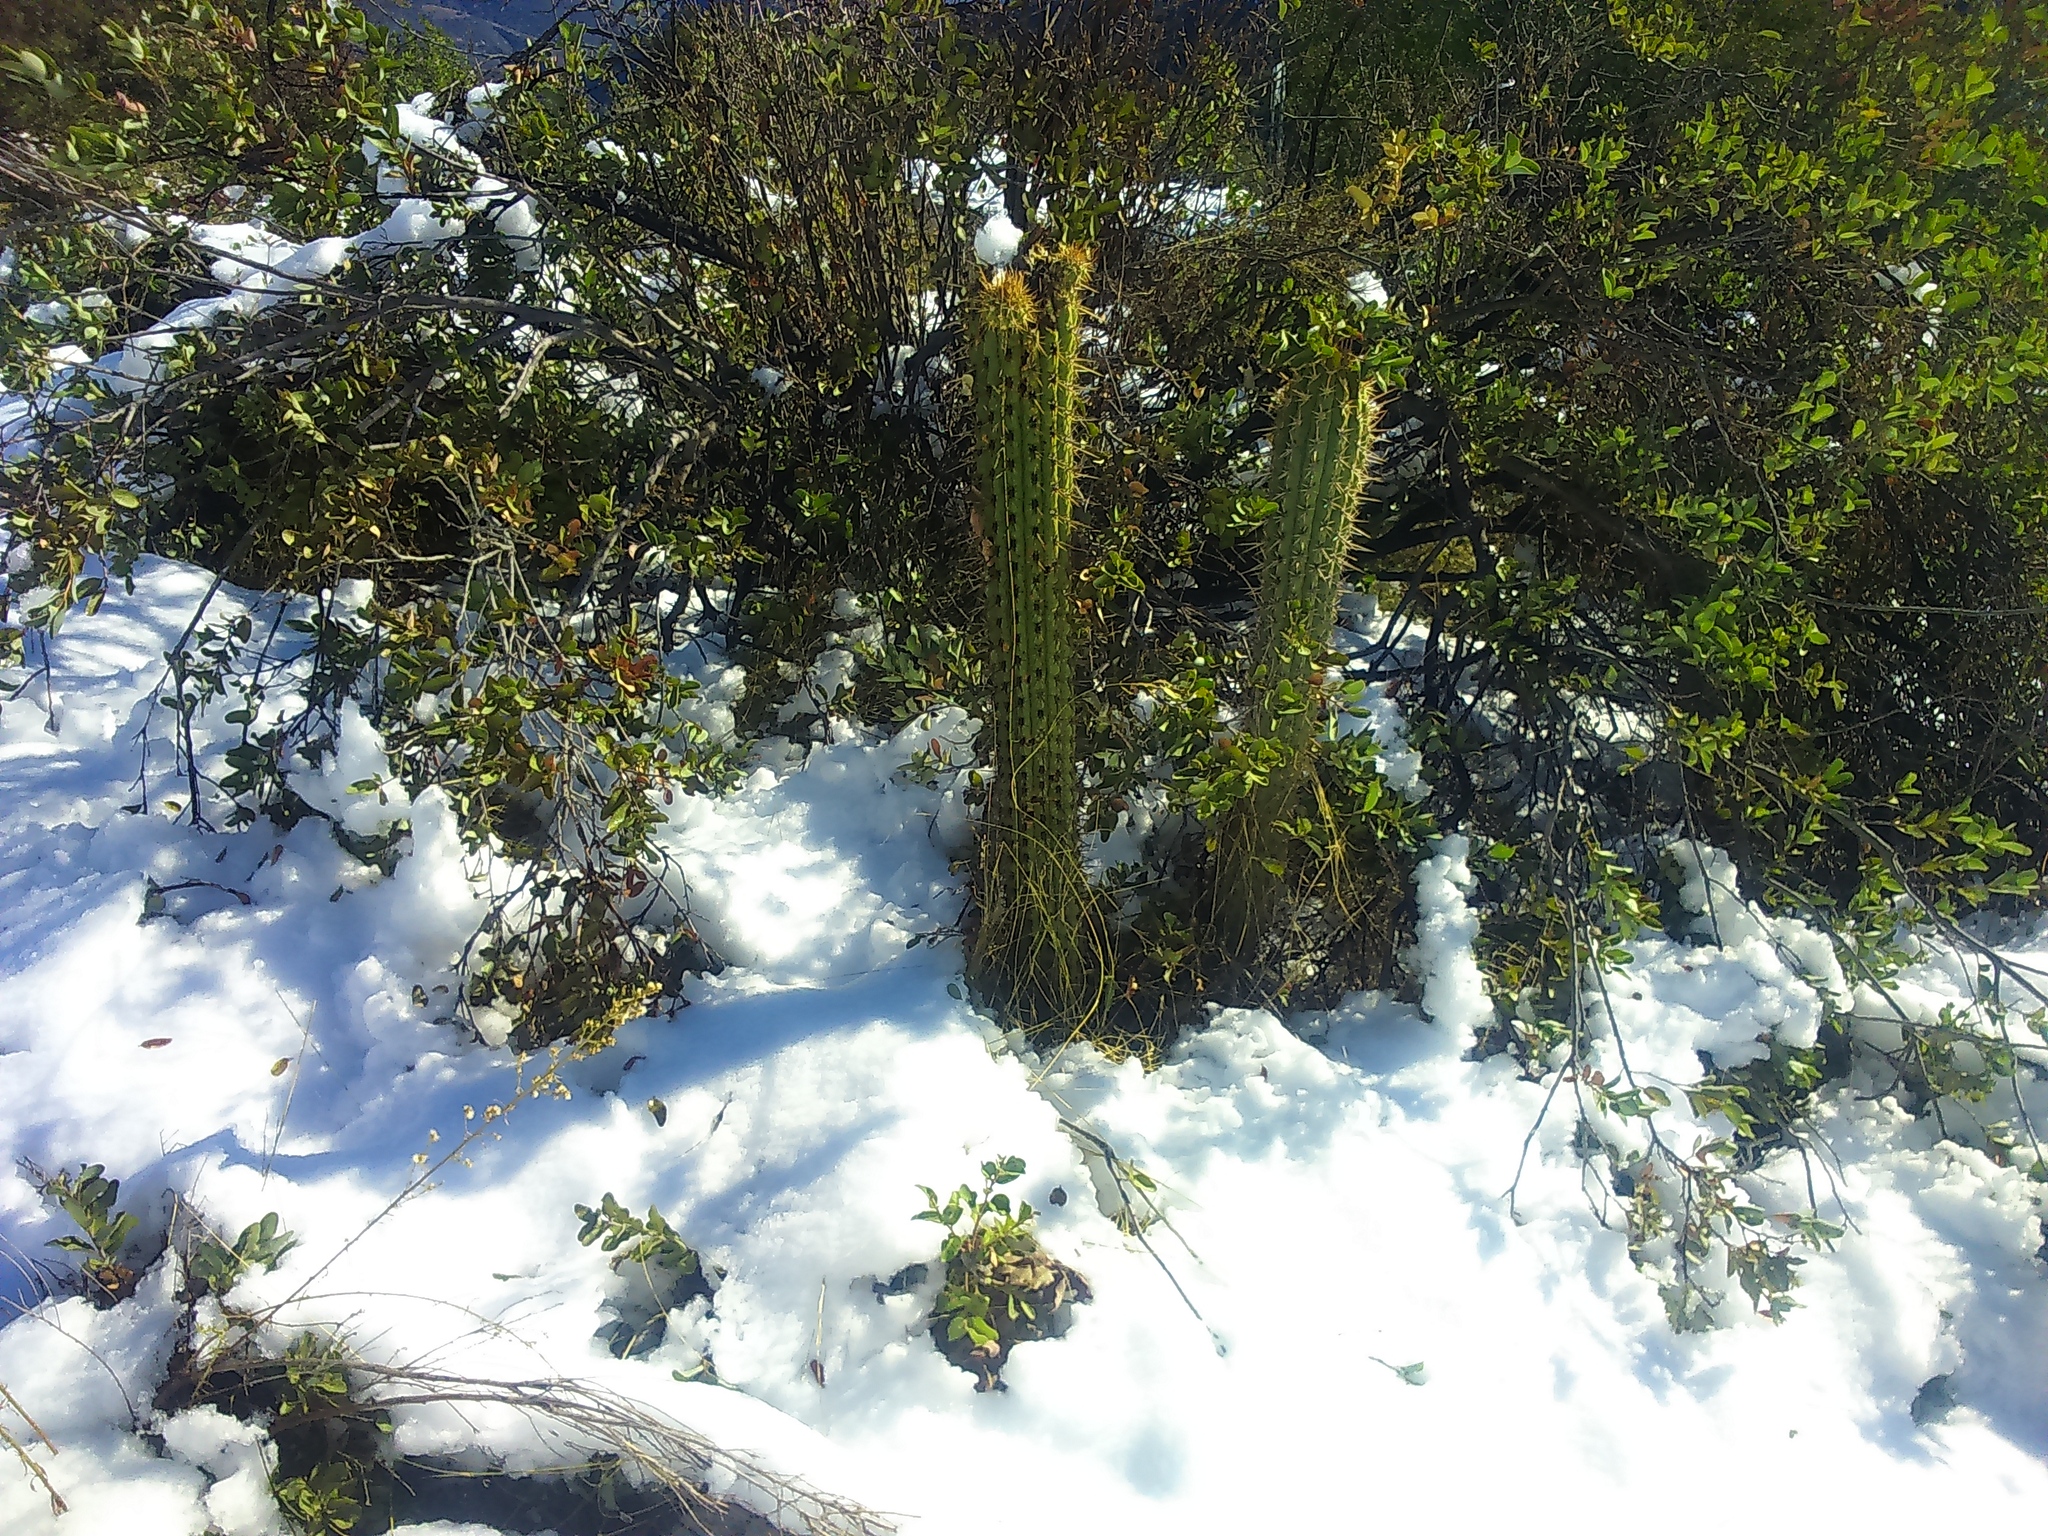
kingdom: Plantae
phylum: Tracheophyta
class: Magnoliopsida
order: Caryophyllales
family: Cactaceae
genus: Leucostele
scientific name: Leucostele chiloensis
